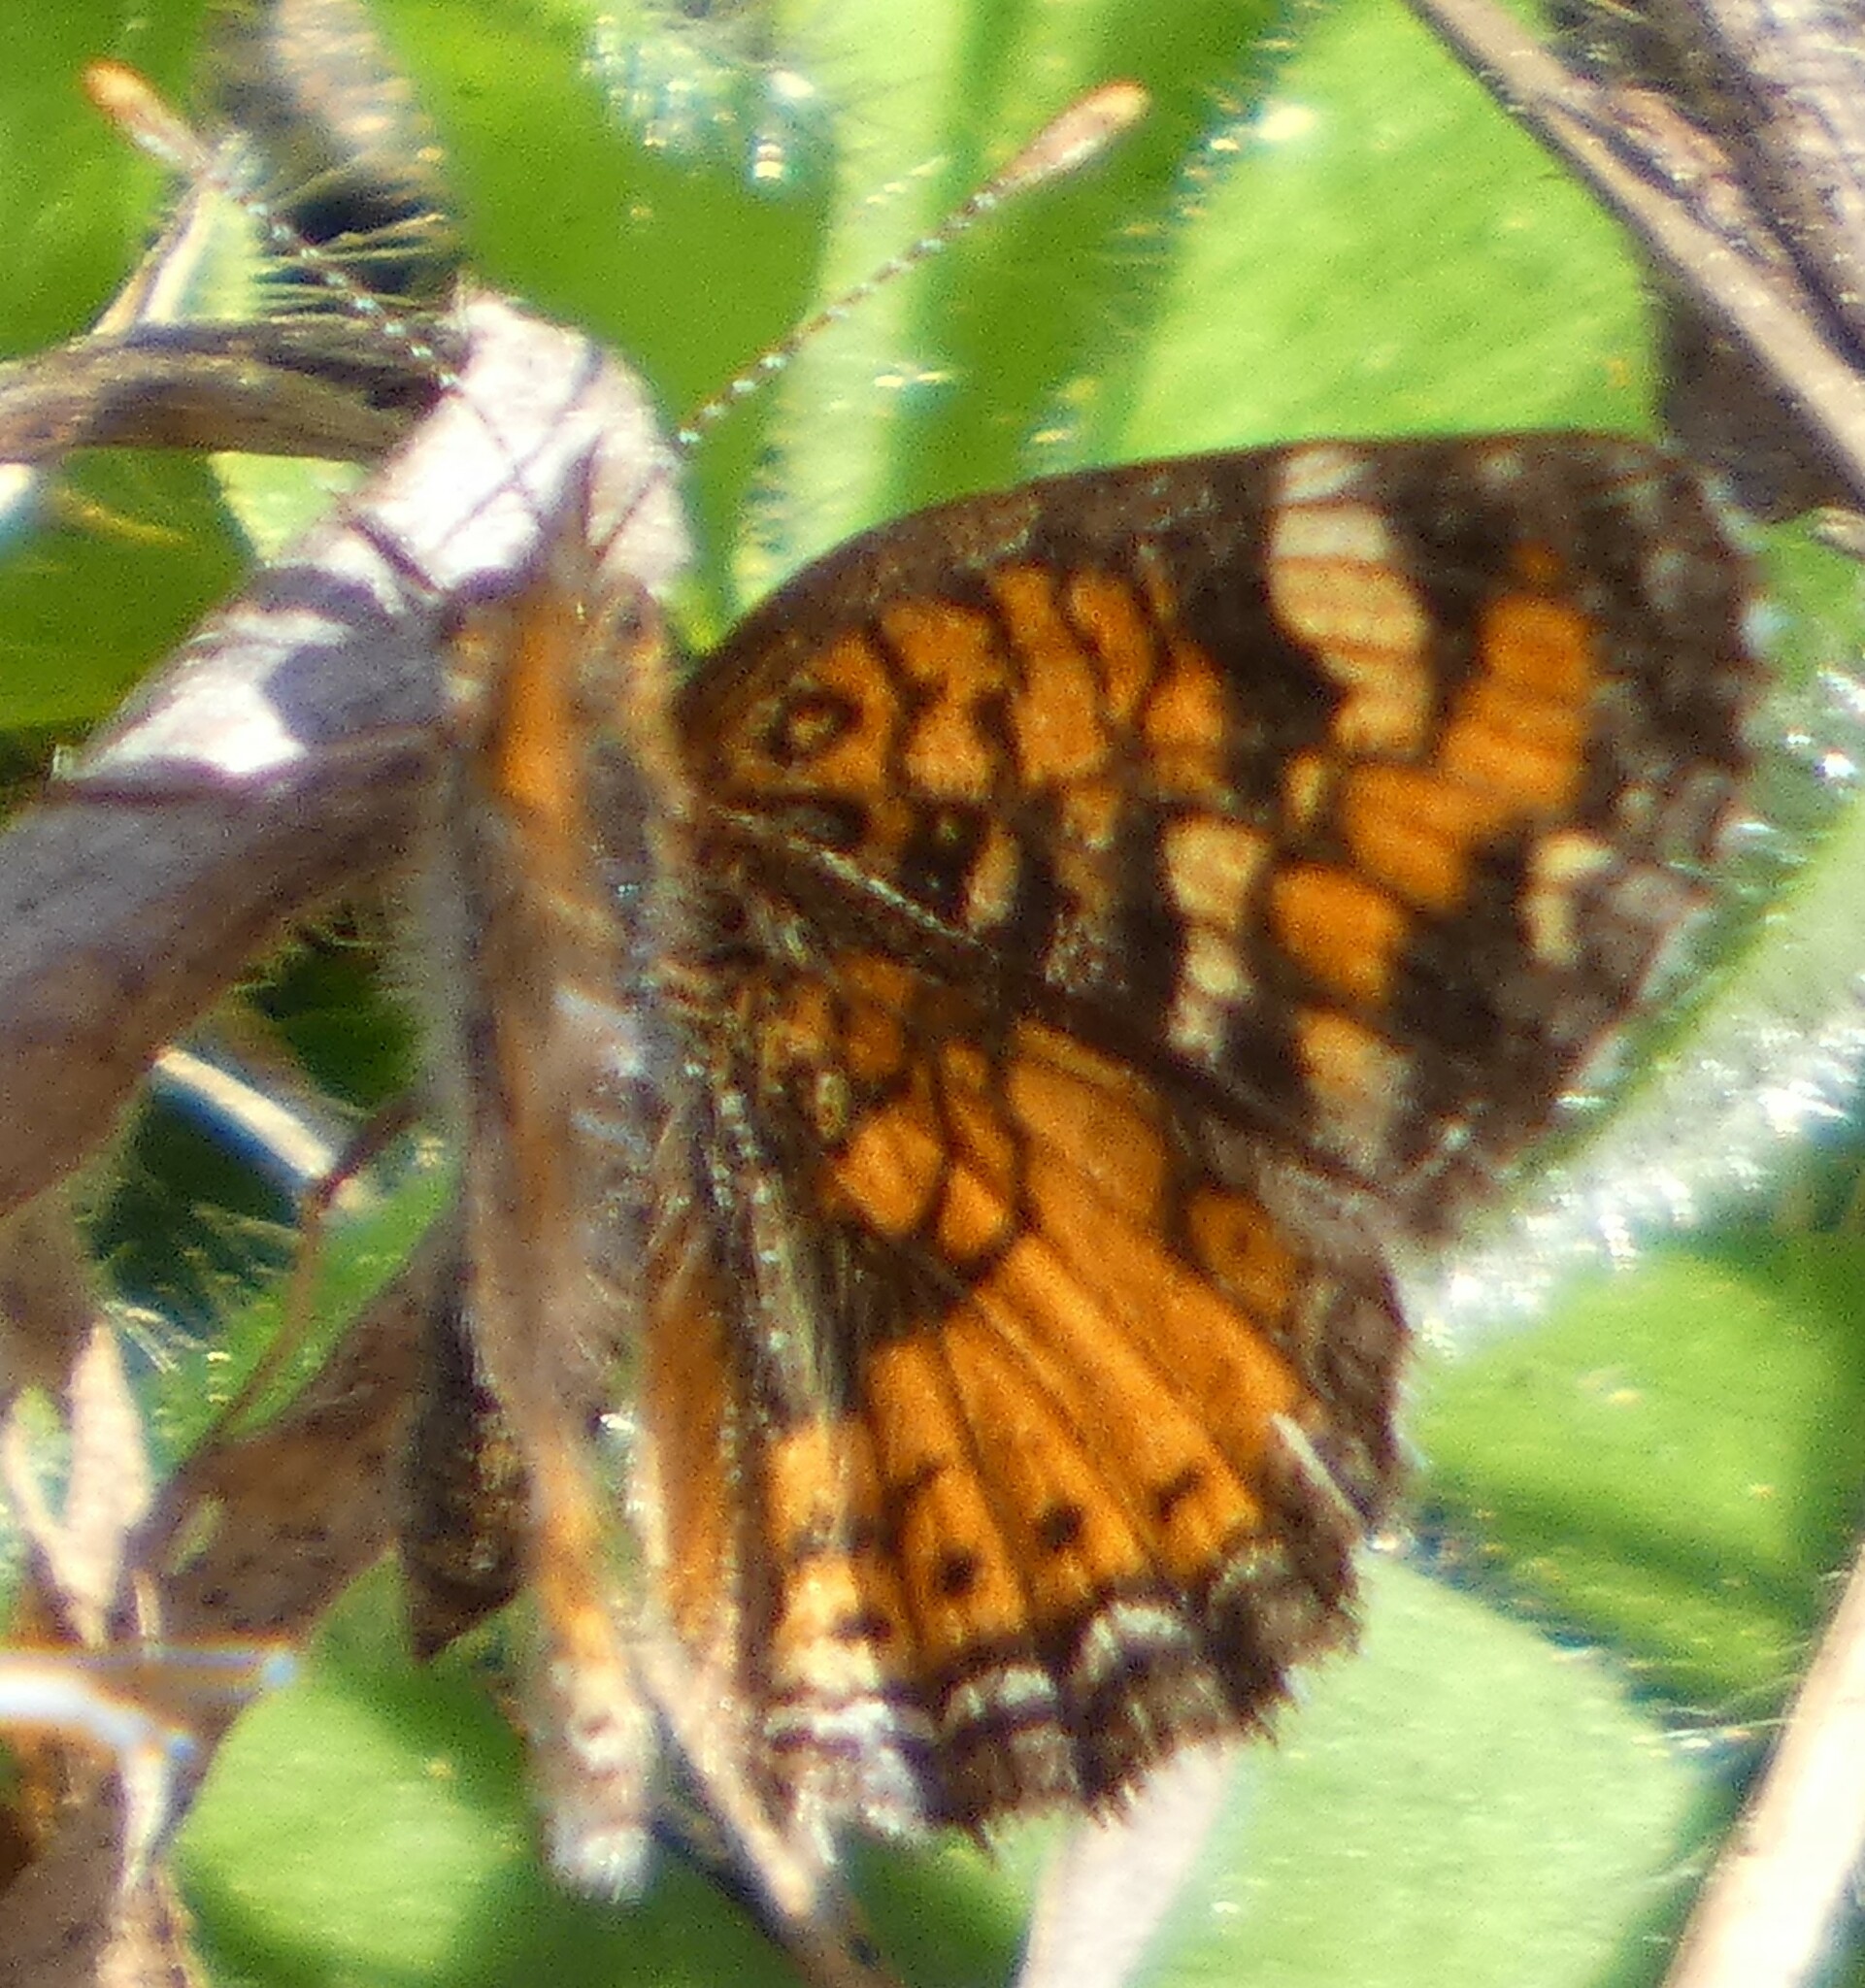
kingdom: Animalia
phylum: Arthropoda
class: Insecta
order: Lepidoptera
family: Nymphalidae
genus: Phyciodes
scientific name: Phyciodes phaon
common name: Phaon crescent
